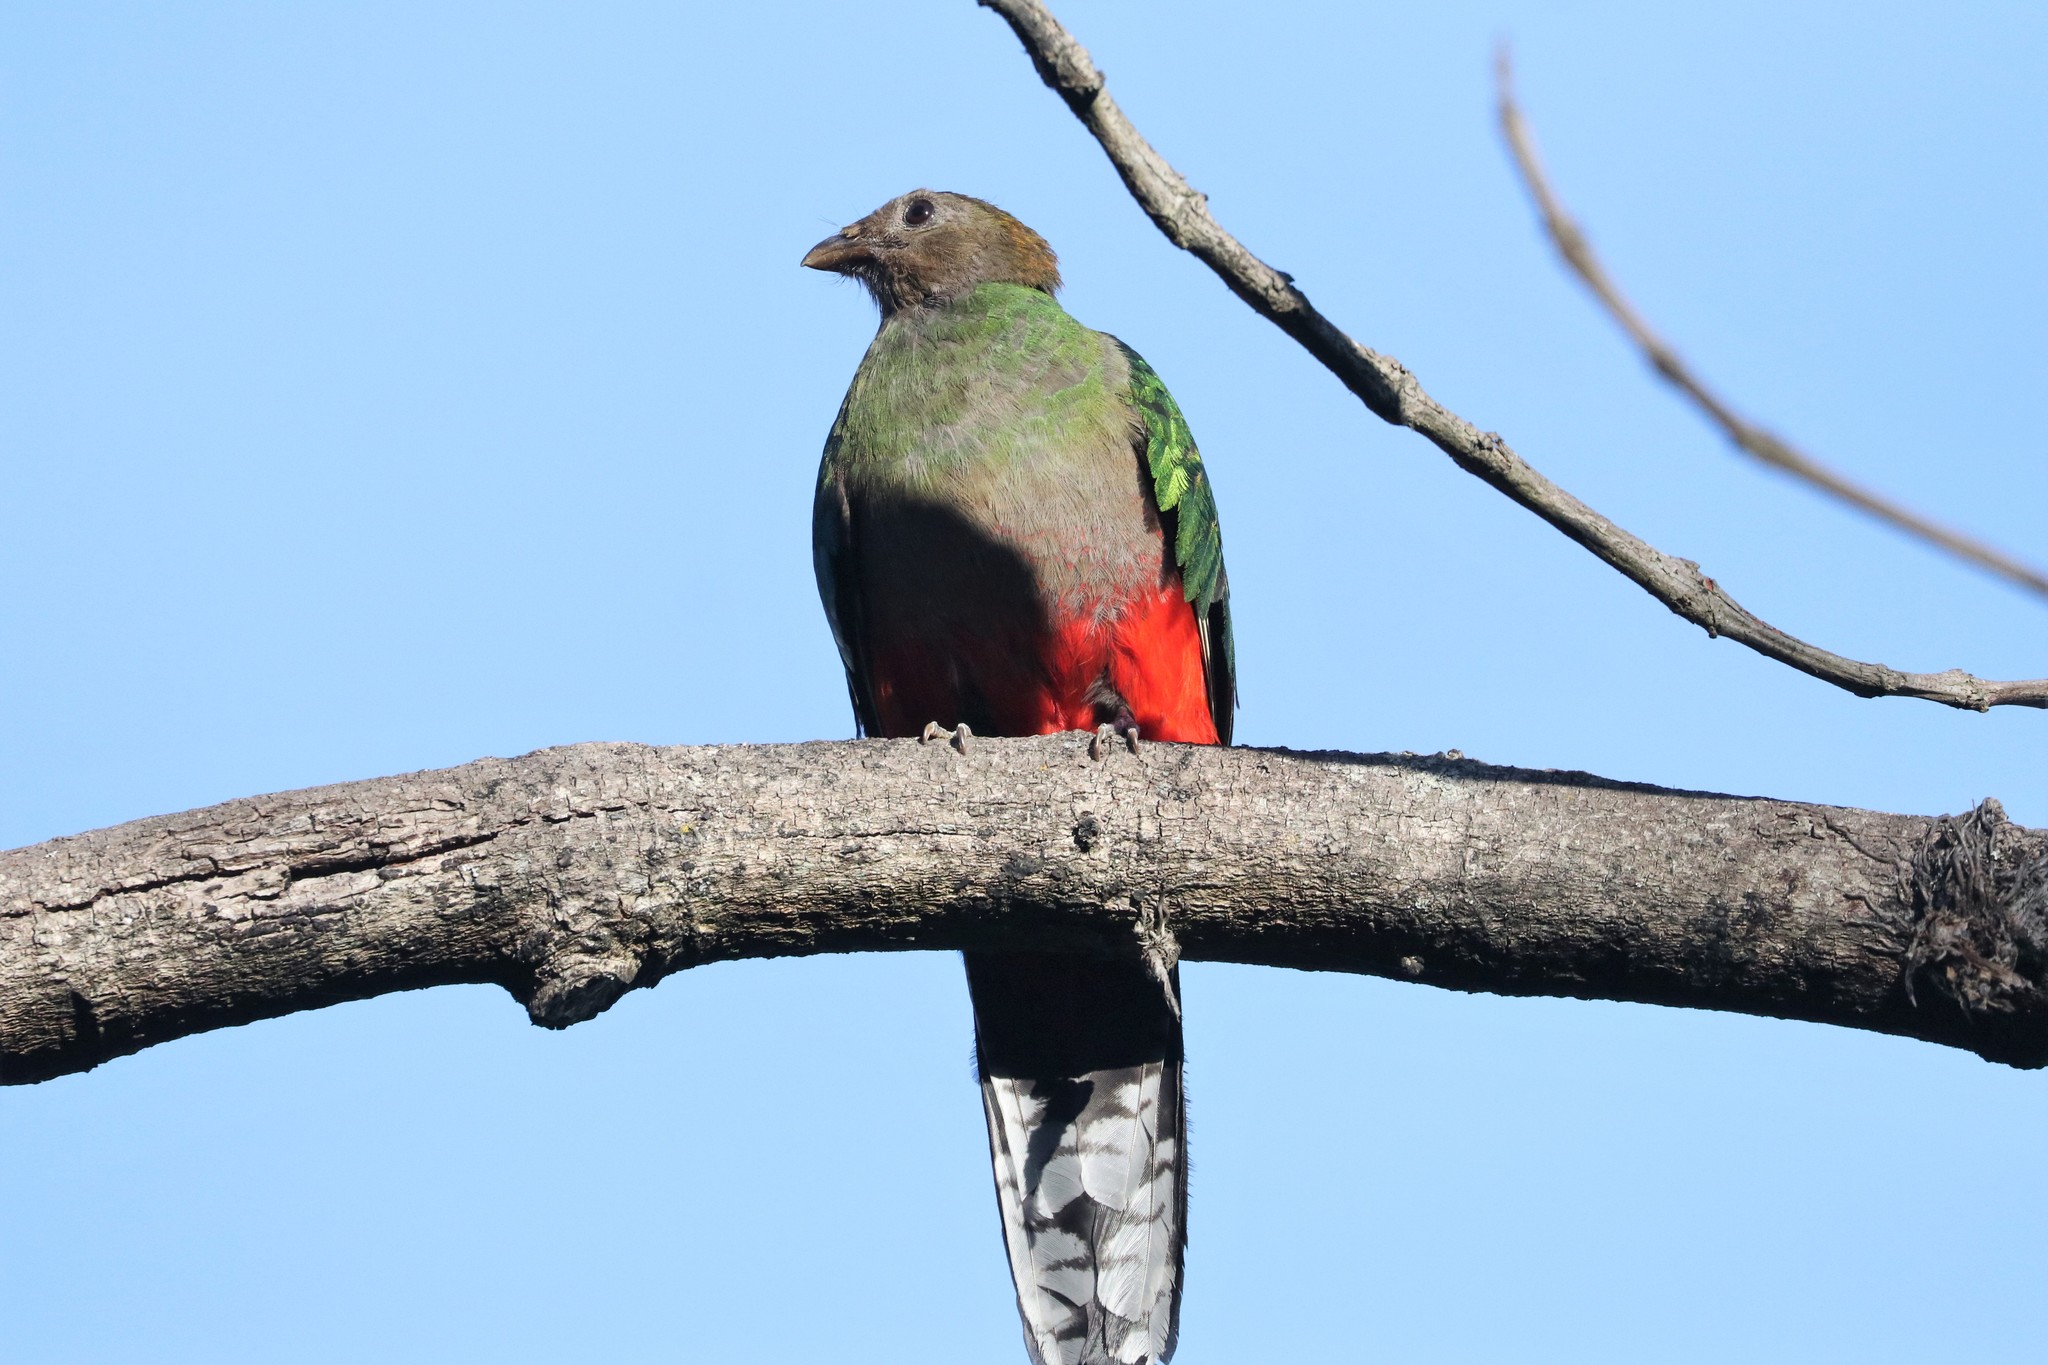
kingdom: Animalia
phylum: Chordata
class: Aves
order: Trogoniformes
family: Trogonidae
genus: Pharomachrus
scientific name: Pharomachrus fulgidus
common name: White-tipped quetzal
